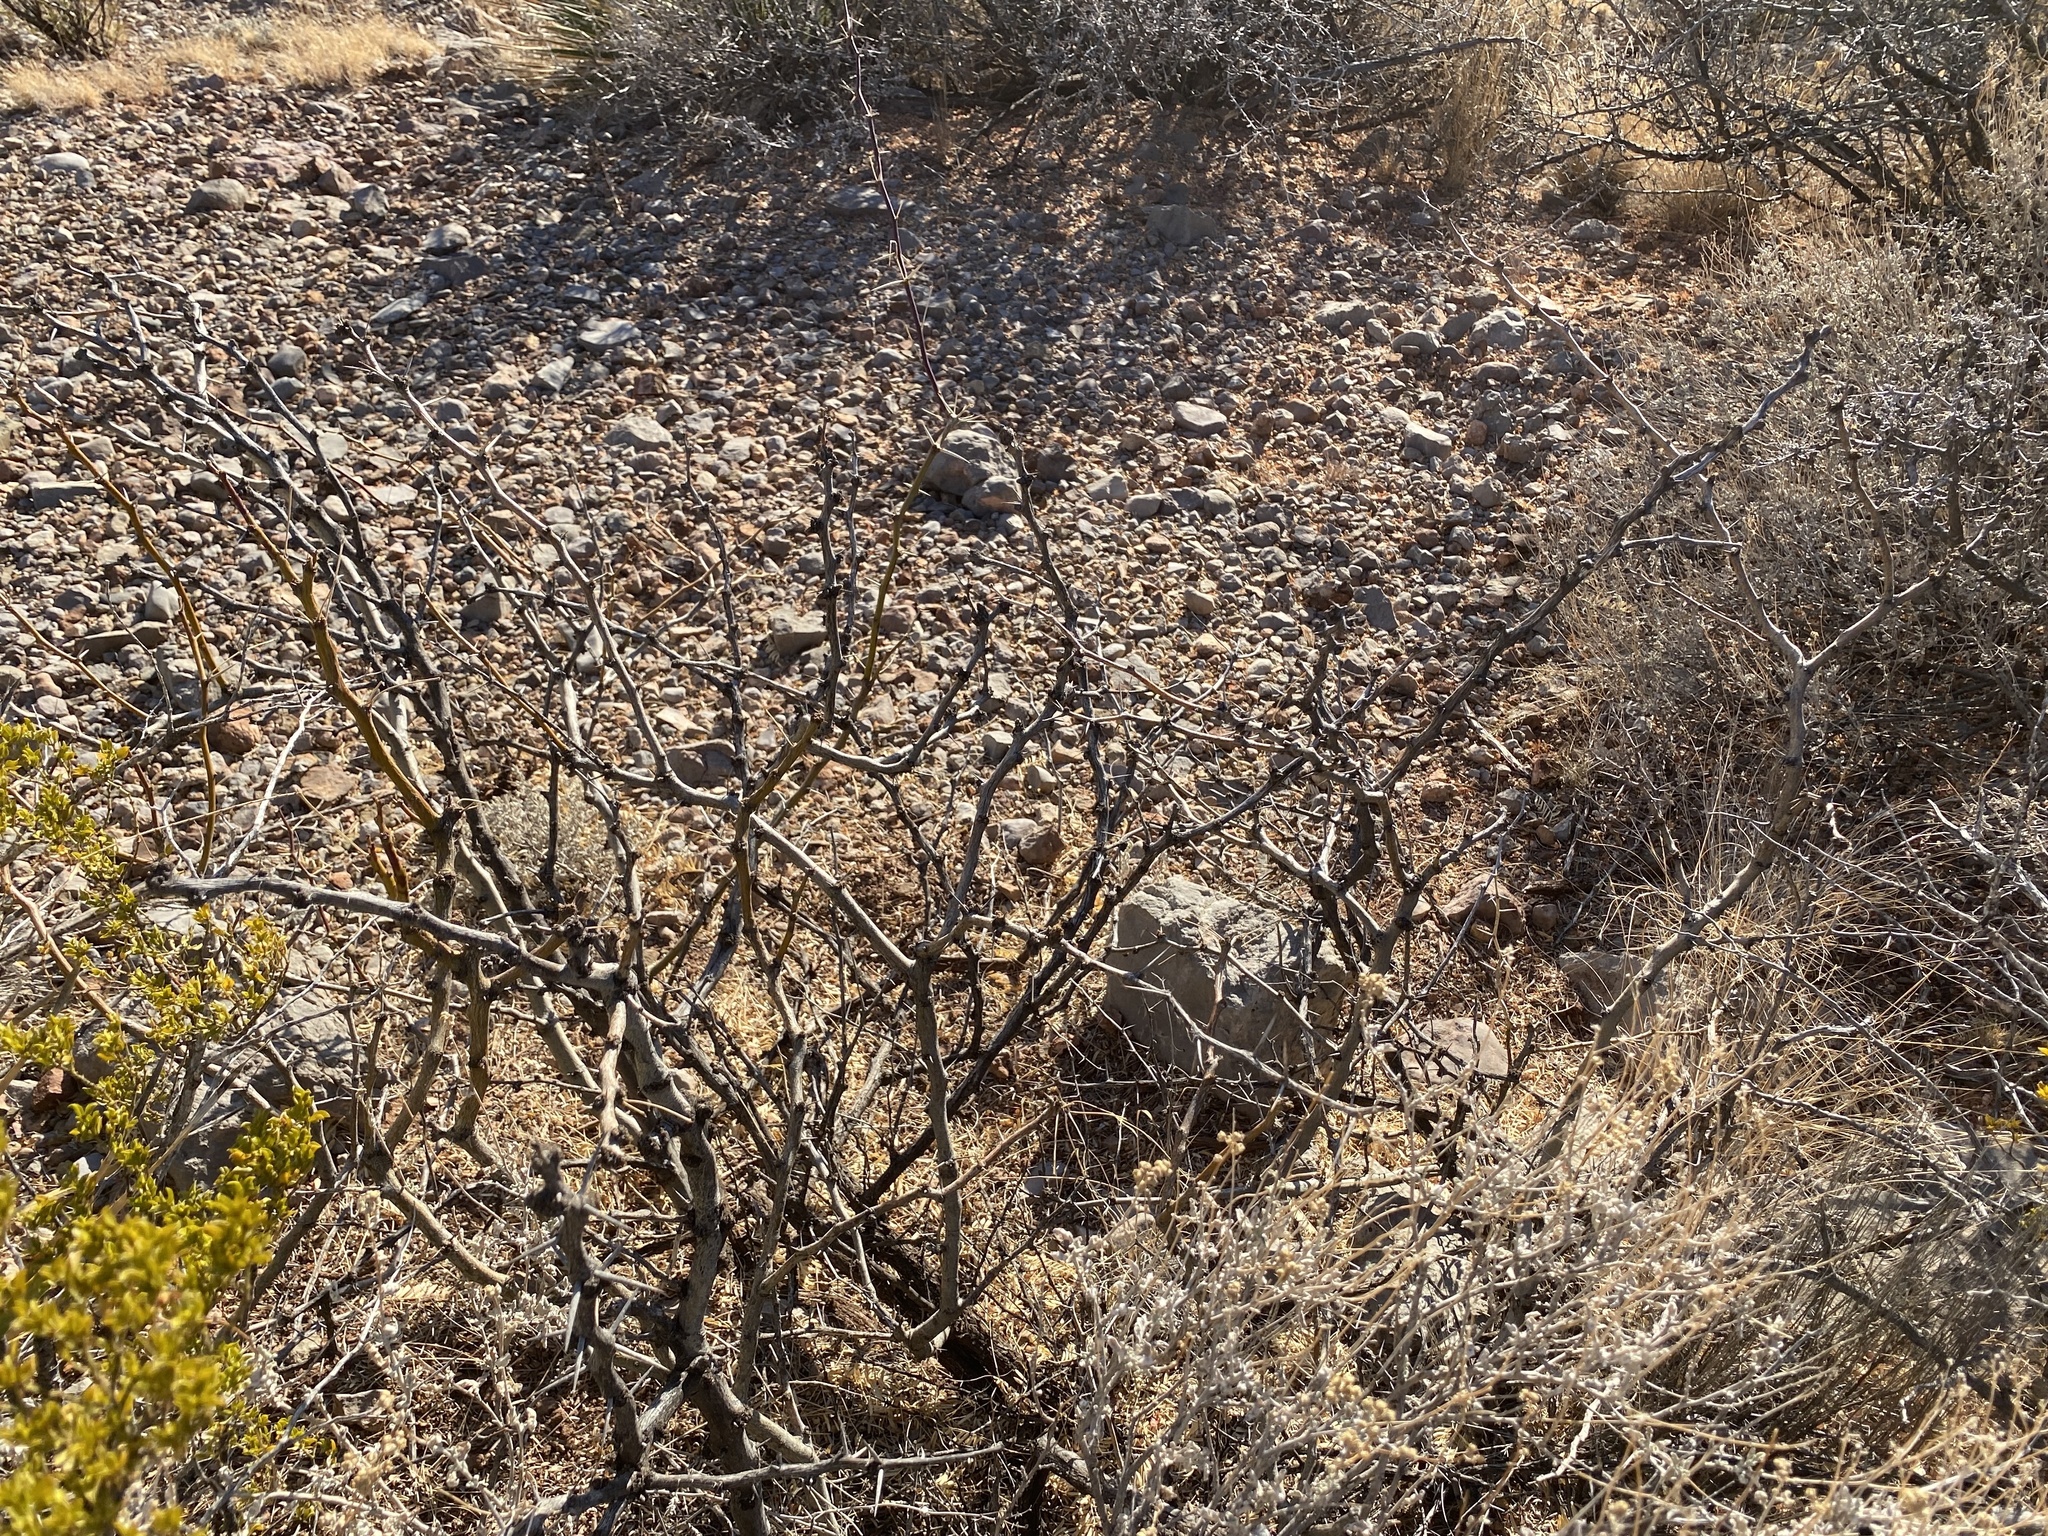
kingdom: Plantae
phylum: Tracheophyta
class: Magnoliopsida
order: Fabales
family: Fabaceae
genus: Prosopis
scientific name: Prosopis glandulosa
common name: Honey mesquite
